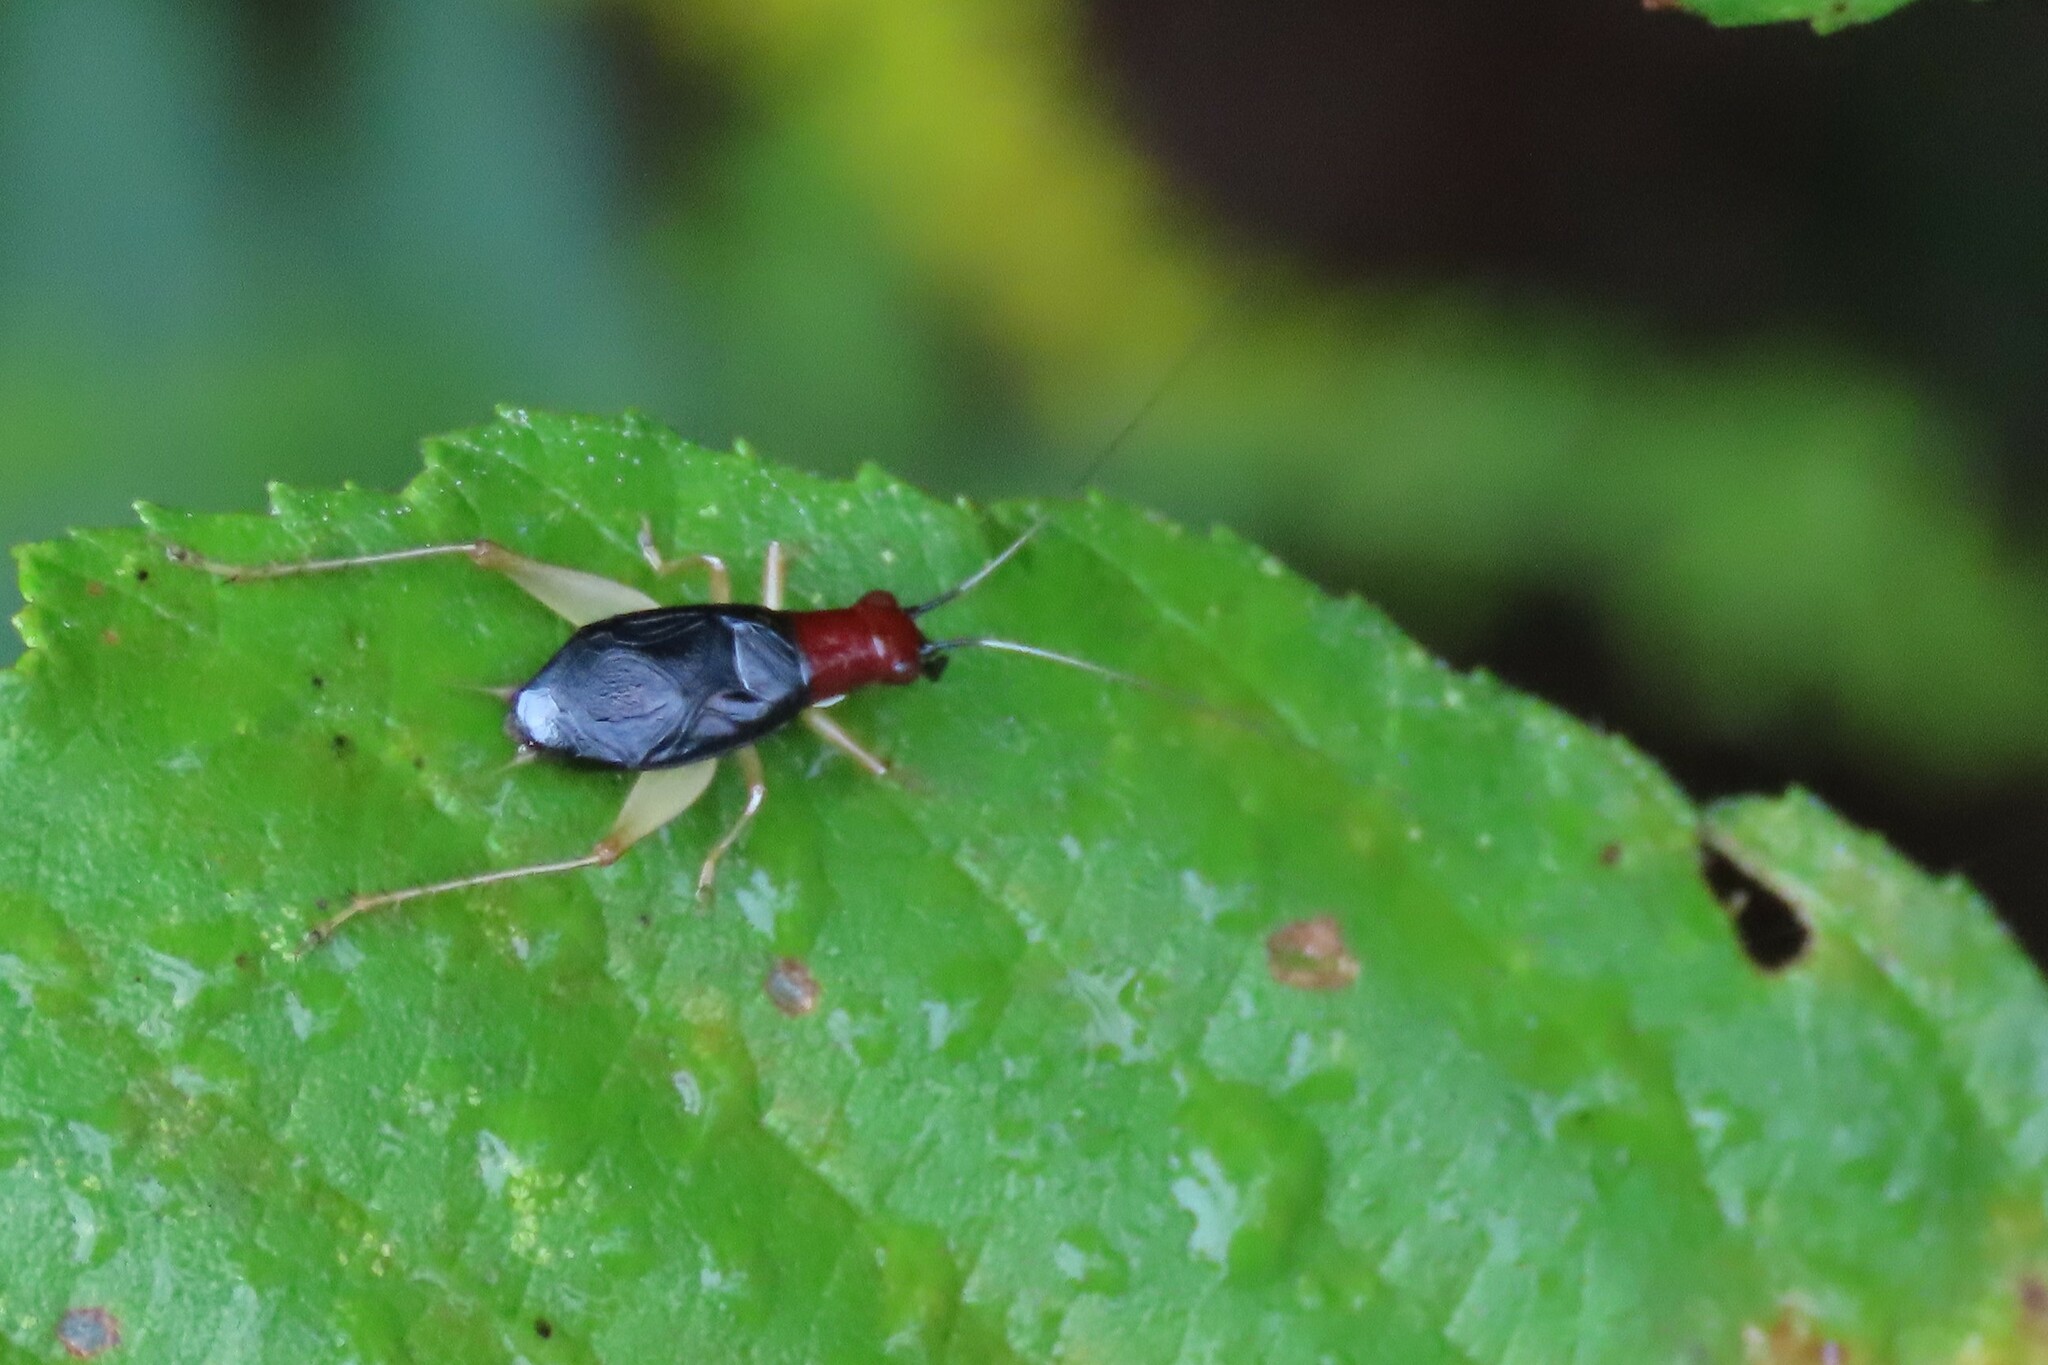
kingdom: Animalia
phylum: Arthropoda
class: Insecta
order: Orthoptera
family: Trigonidiidae
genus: Phyllopalpus
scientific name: Phyllopalpus pulchellus
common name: Handsome trig
